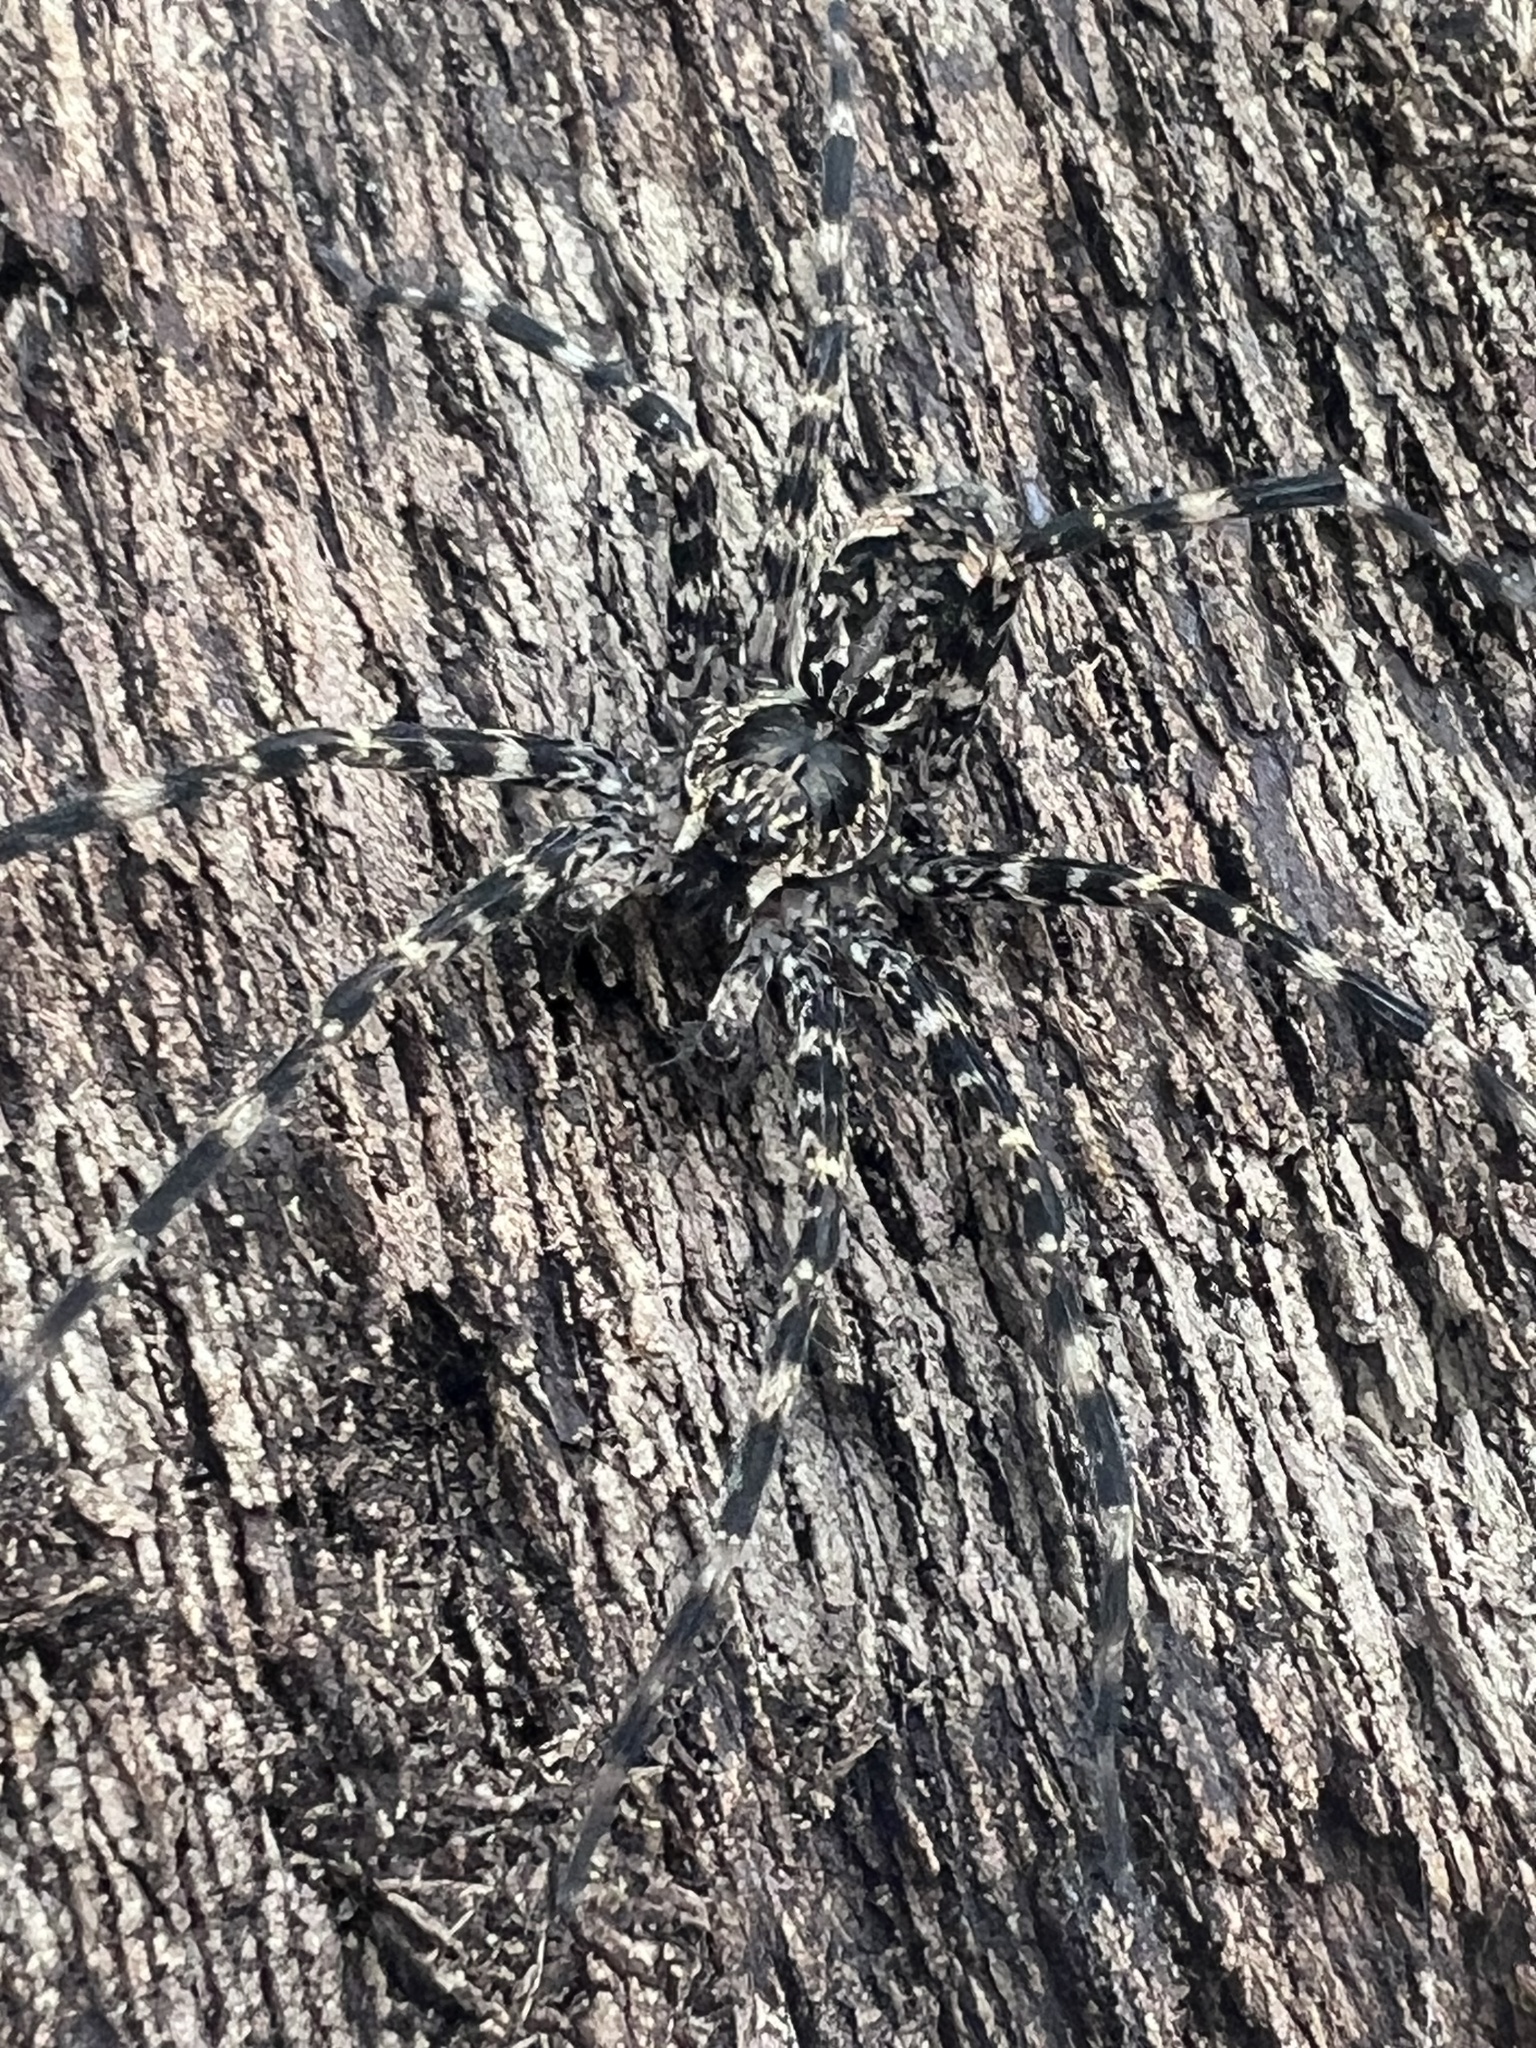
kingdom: Animalia
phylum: Arthropoda
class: Arachnida
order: Araneae
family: Pisauridae
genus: Dolomedes
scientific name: Dolomedes tenebrosus
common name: Dark fishing spider
